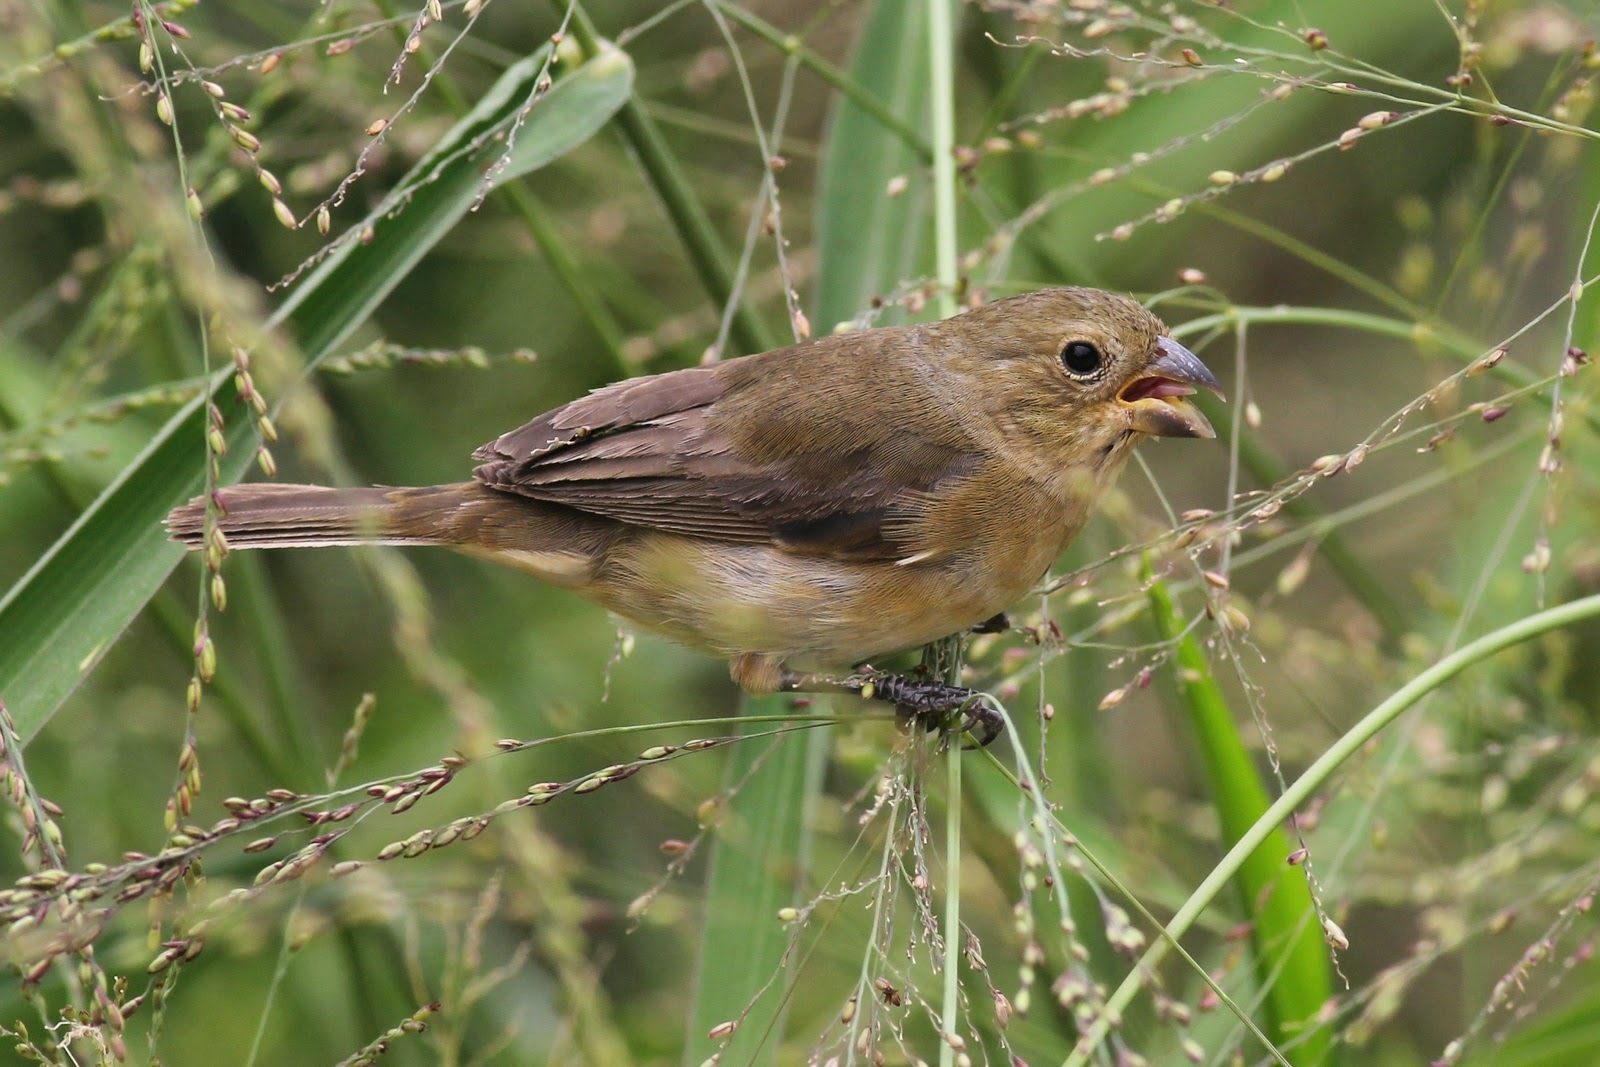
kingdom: Animalia
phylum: Chordata
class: Aves
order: Passeriformes
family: Thraupidae
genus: Sporophila
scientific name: Sporophila caerulescens
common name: Double-collared seedeater
